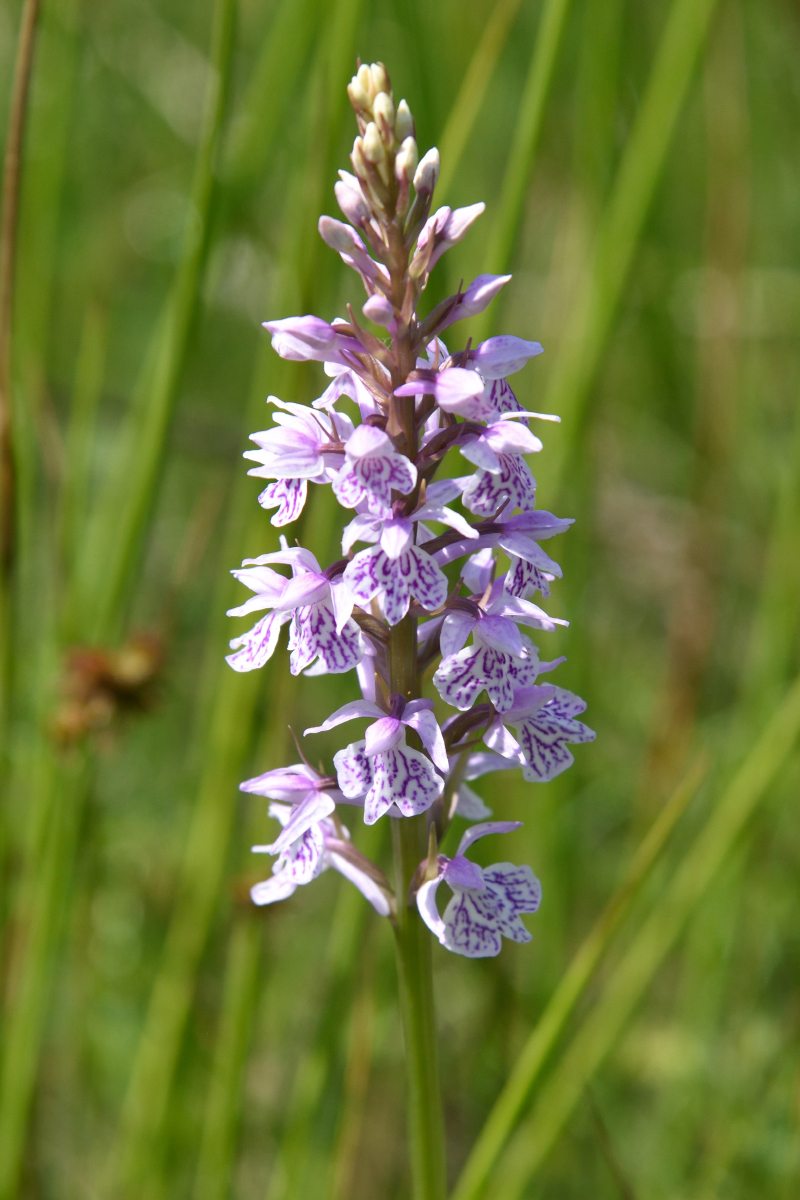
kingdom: Plantae
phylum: Tracheophyta
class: Liliopsida
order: Asparagales
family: Orchidaceae
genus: Dactylorhiza
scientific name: Dactylorhiza maculata
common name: Heath spotted-orchid
